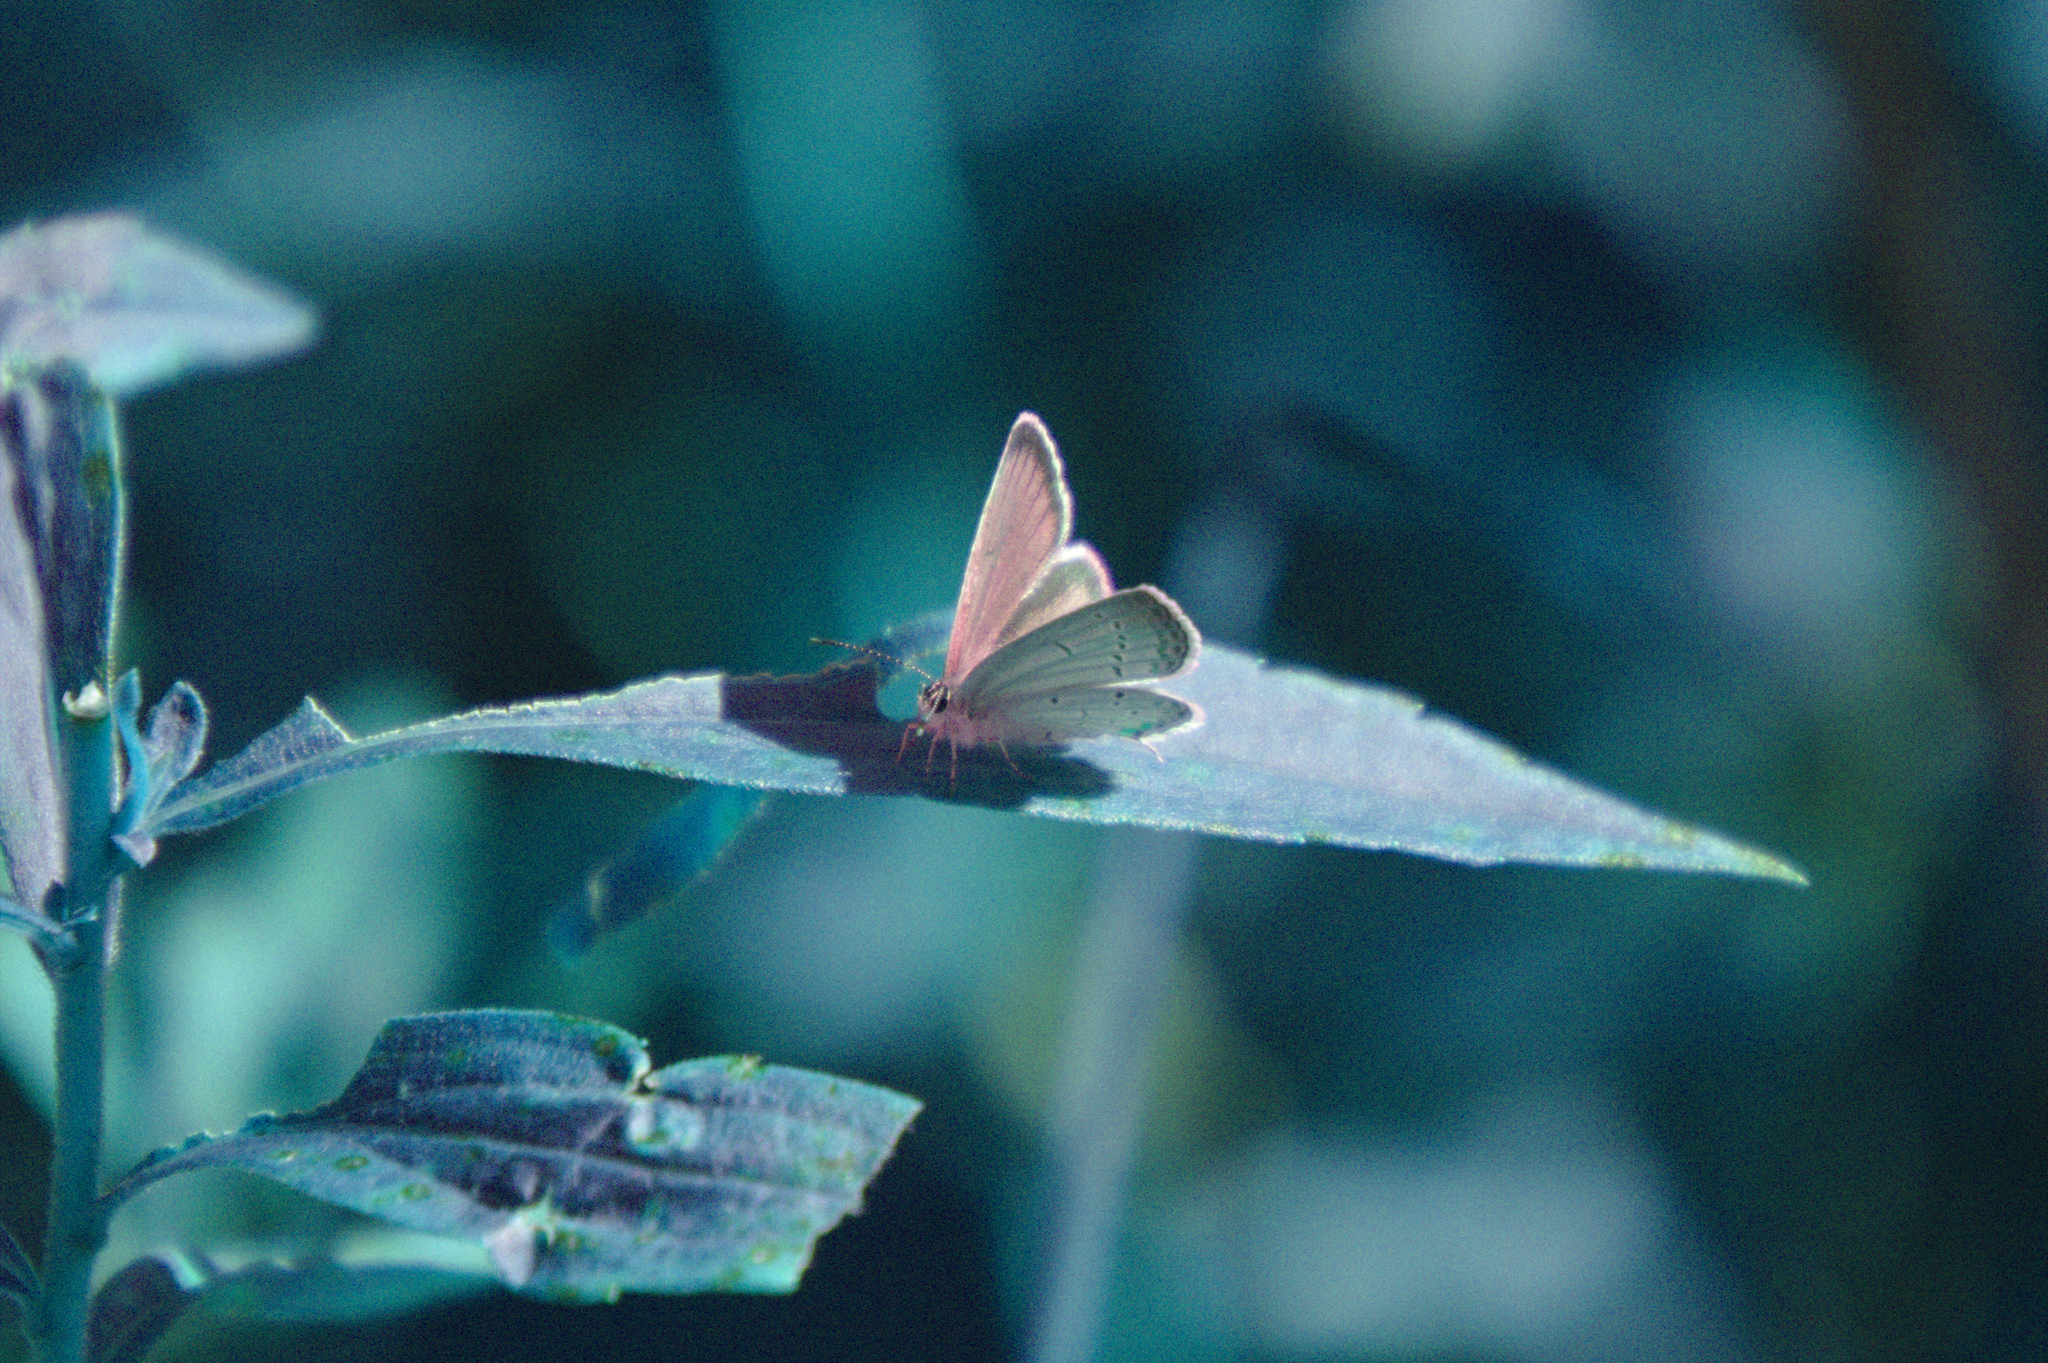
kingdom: Animalia
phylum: Arthropoda
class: Insecta
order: Lepidoptera
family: Lycaenidae
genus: Elkalyce
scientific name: Elkalyce comyntas
